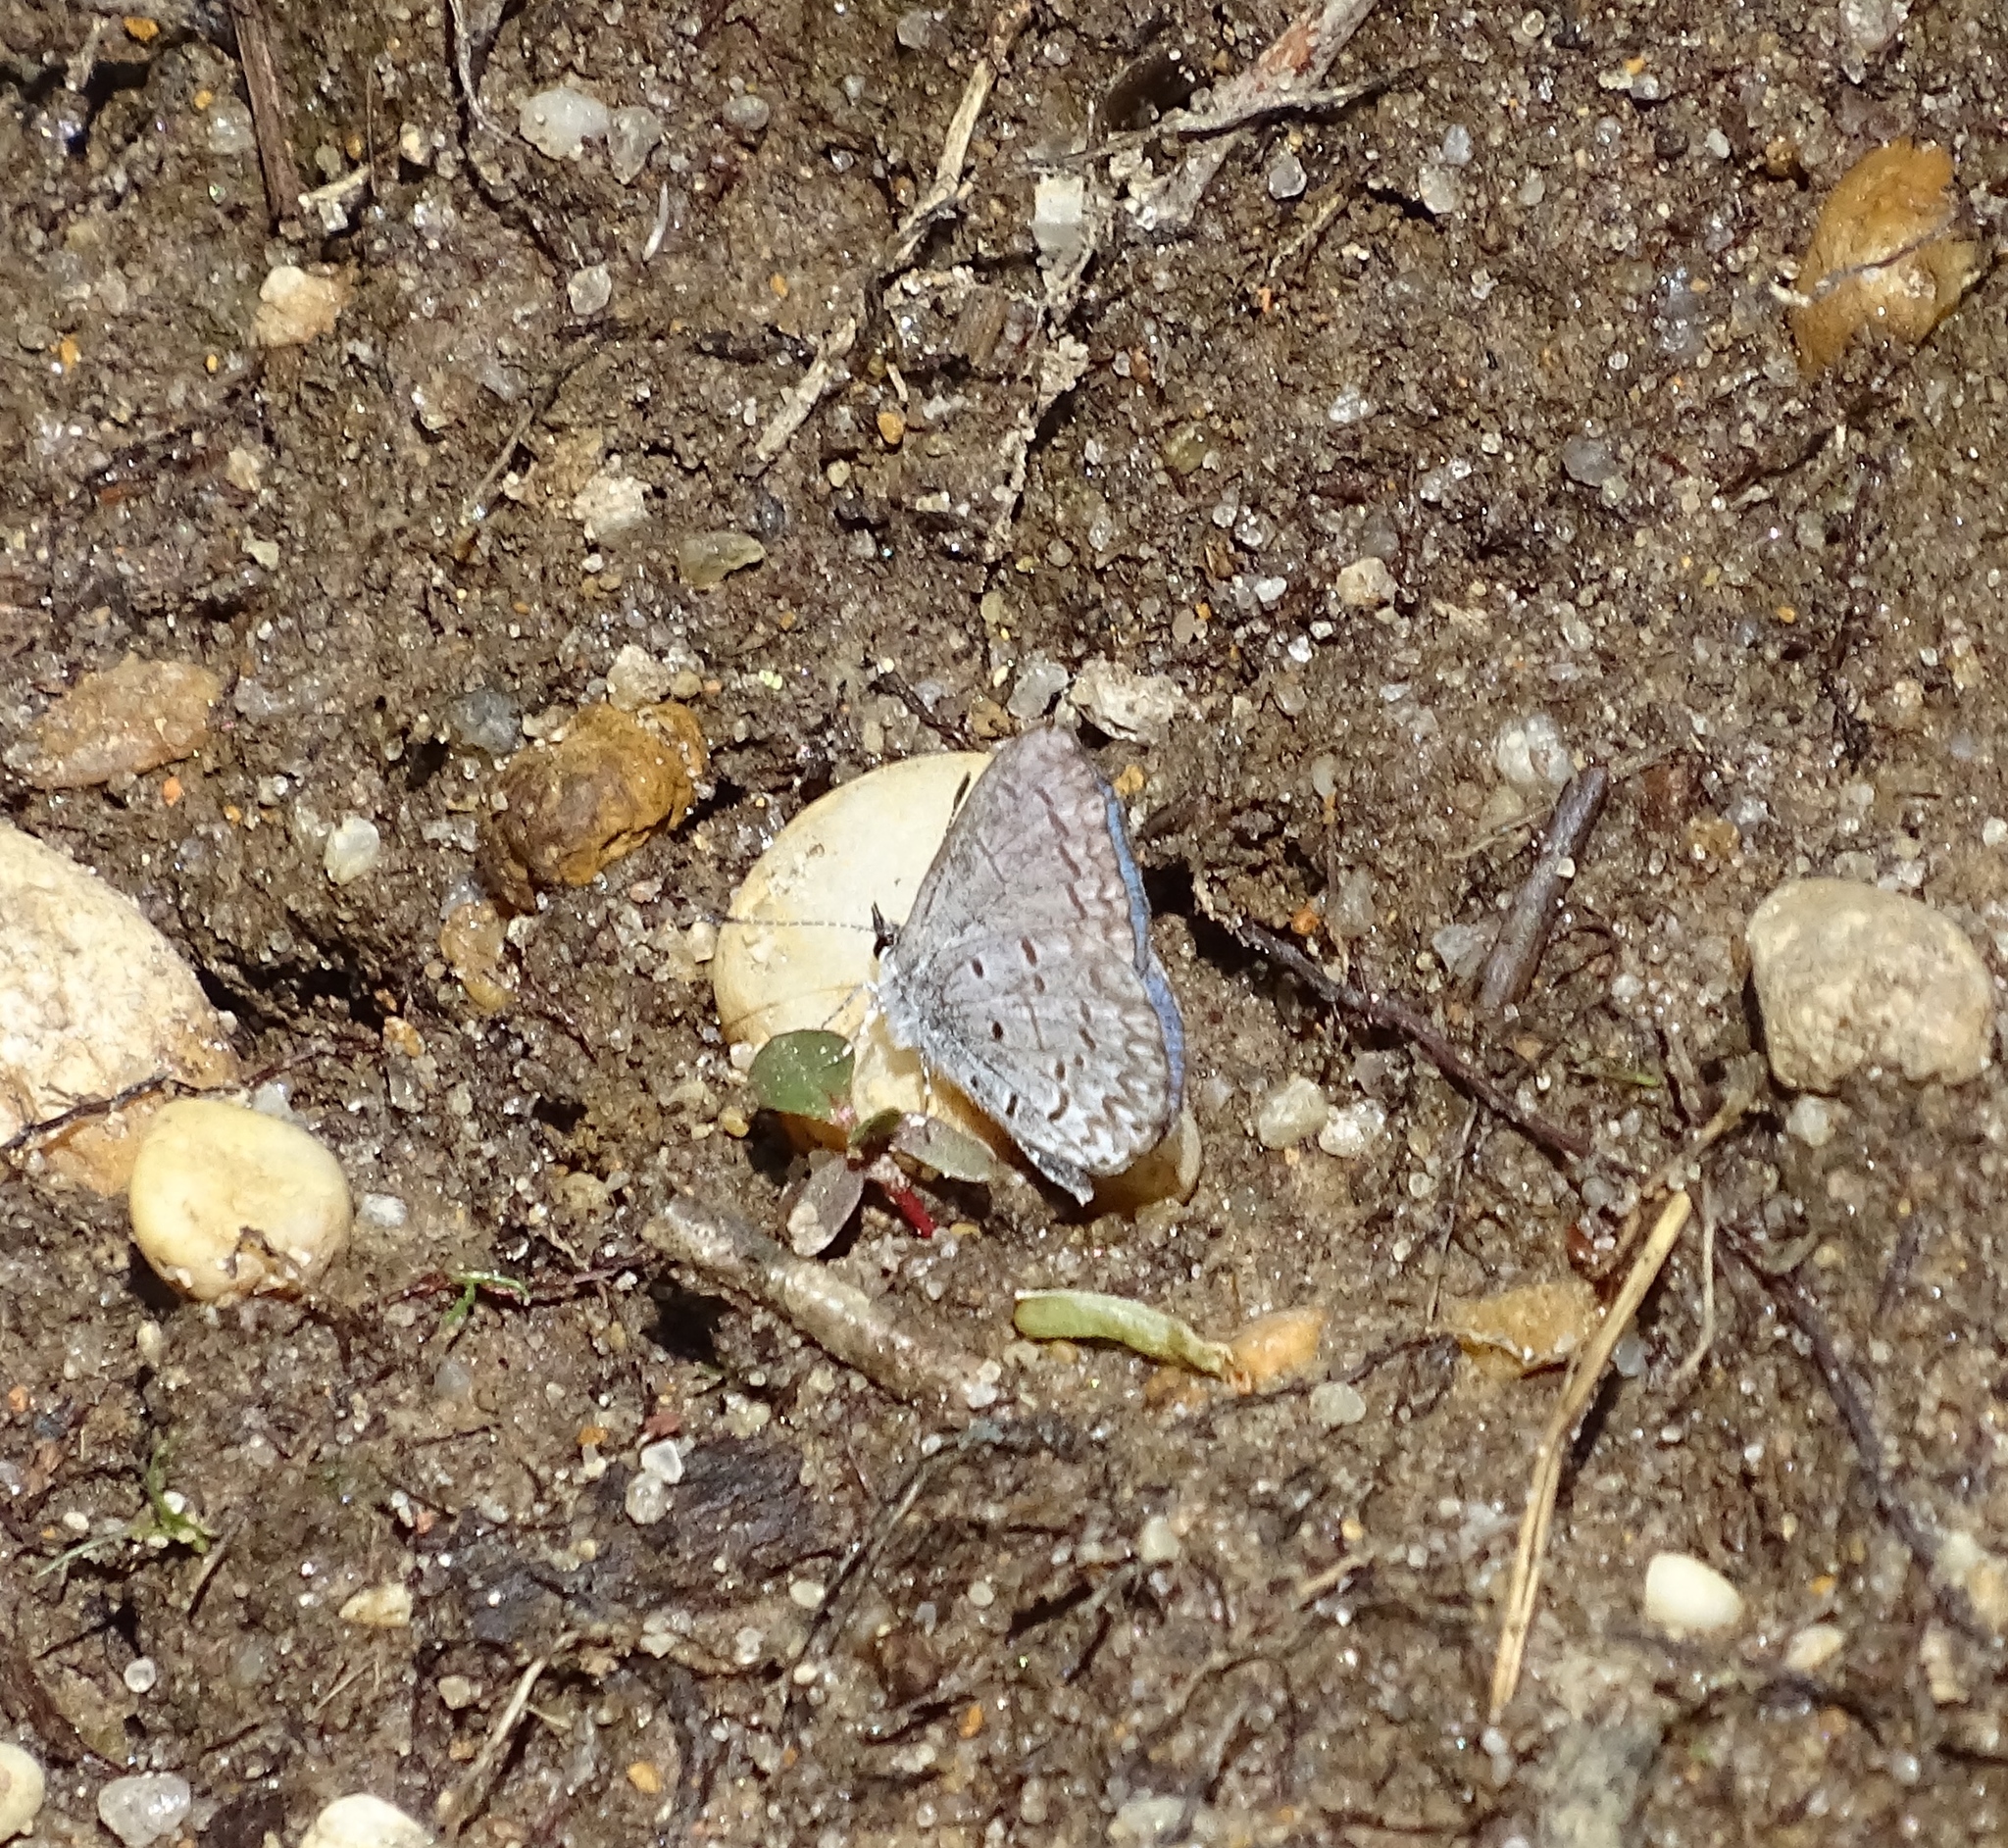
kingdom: Animalia
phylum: Arthropoda
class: Insecta
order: Lepidoptera
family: Lycaenidae
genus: Celastrina
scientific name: Celastrina ladon
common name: Spring azure
